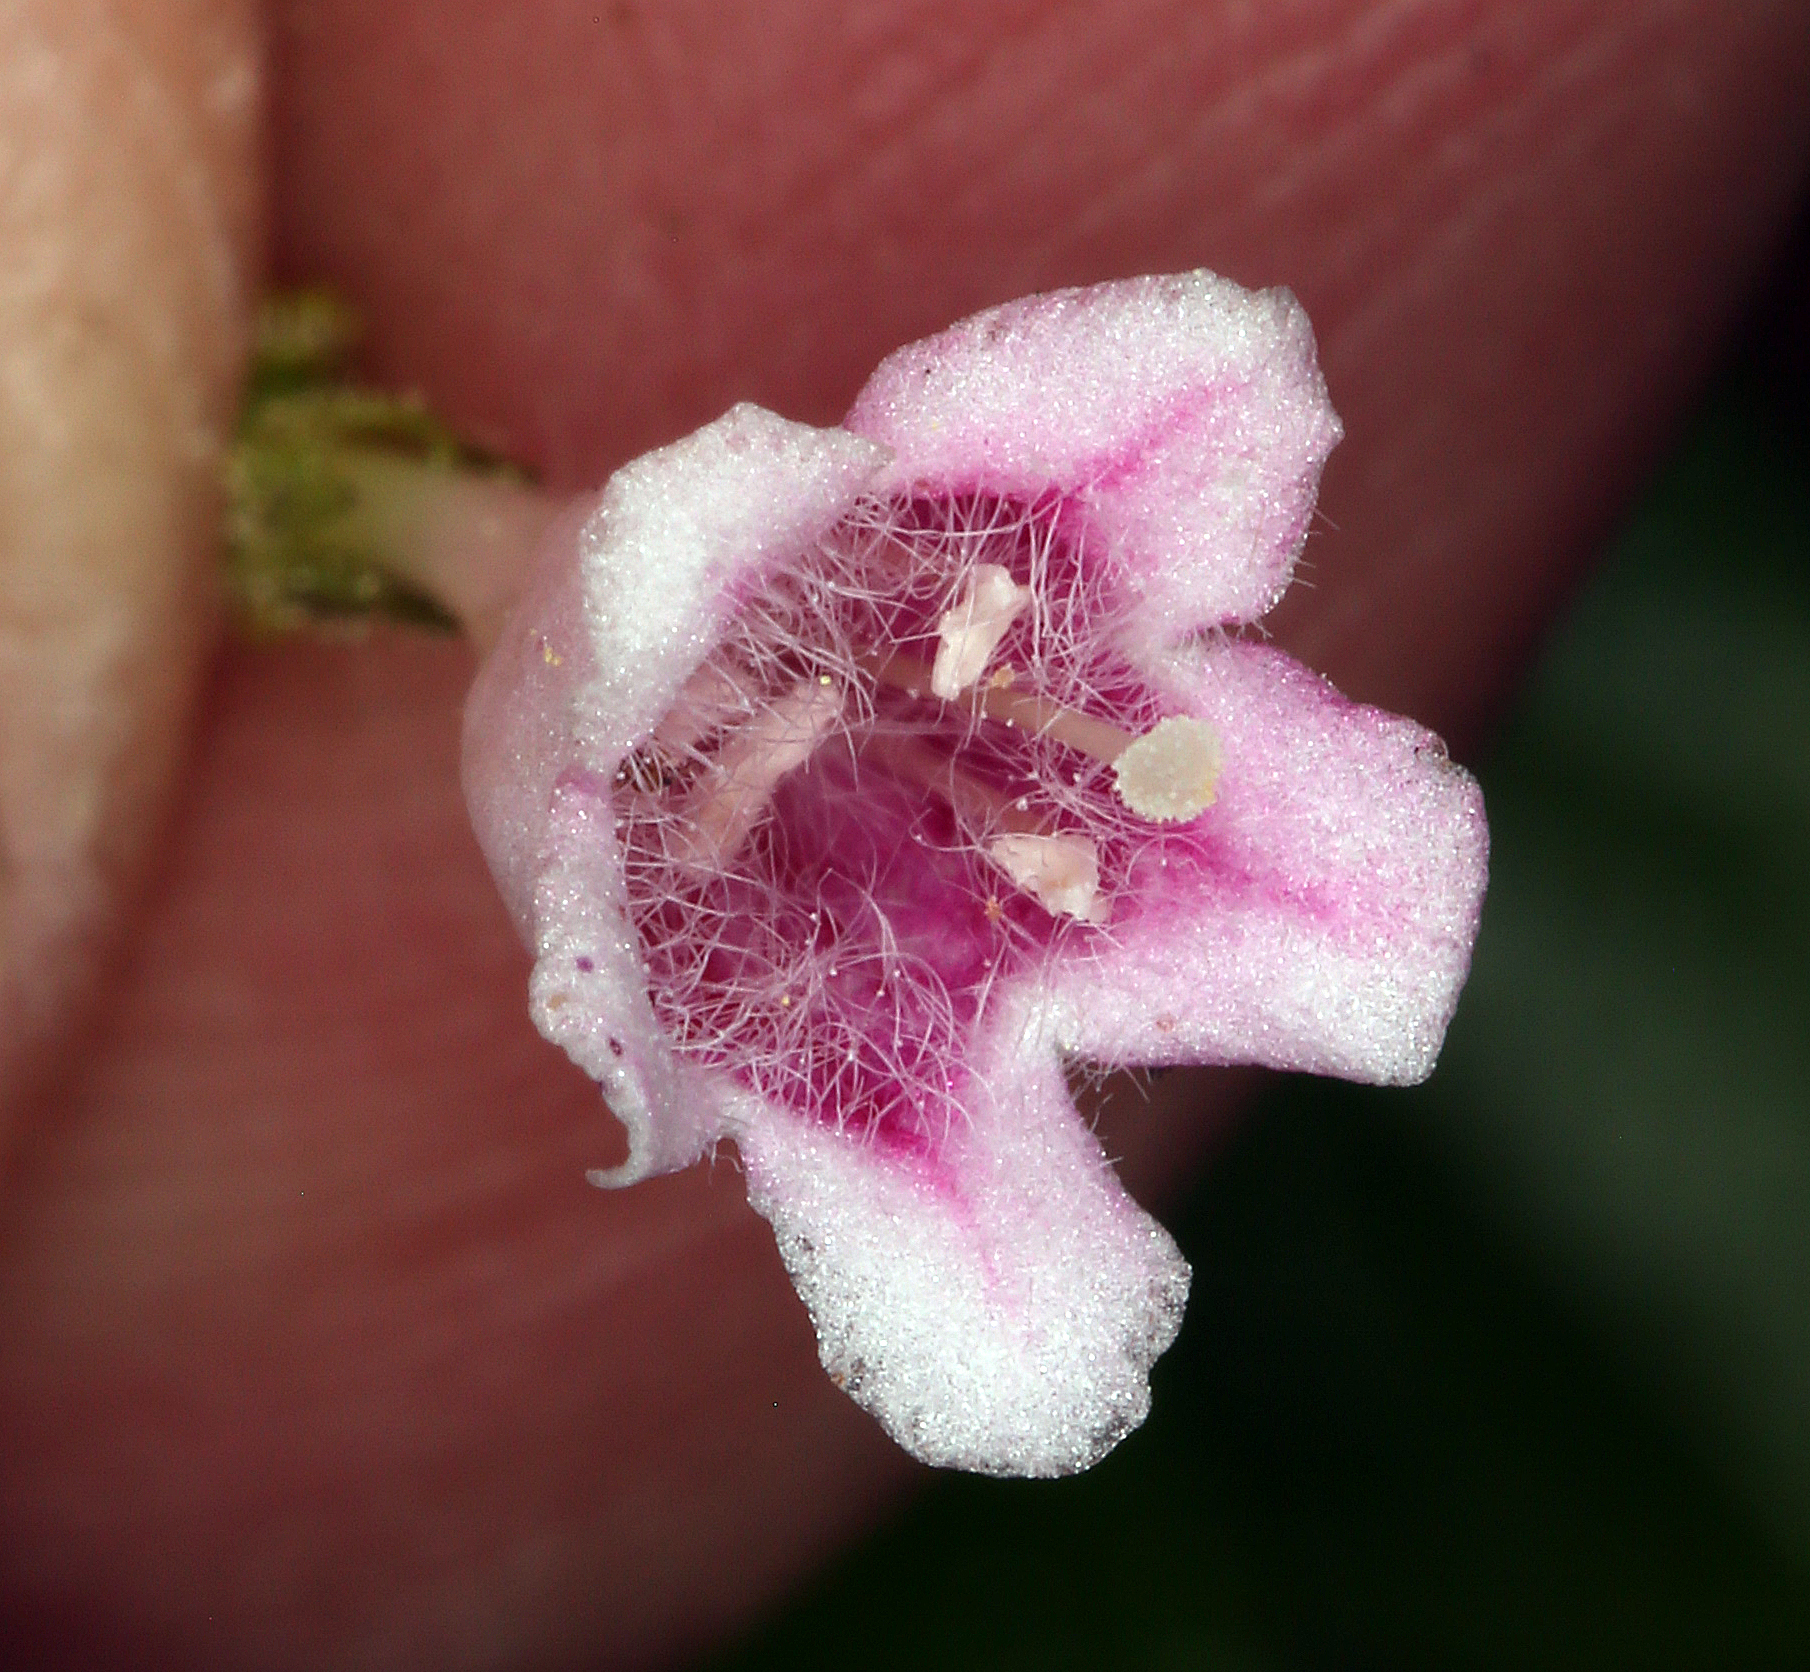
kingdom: Plantae
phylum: Tracheophyta
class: Magnoliopsida
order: Dipsacales
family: Caprifoliaceae
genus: Linnaea
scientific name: Linnaea borealis
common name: Twinflower
